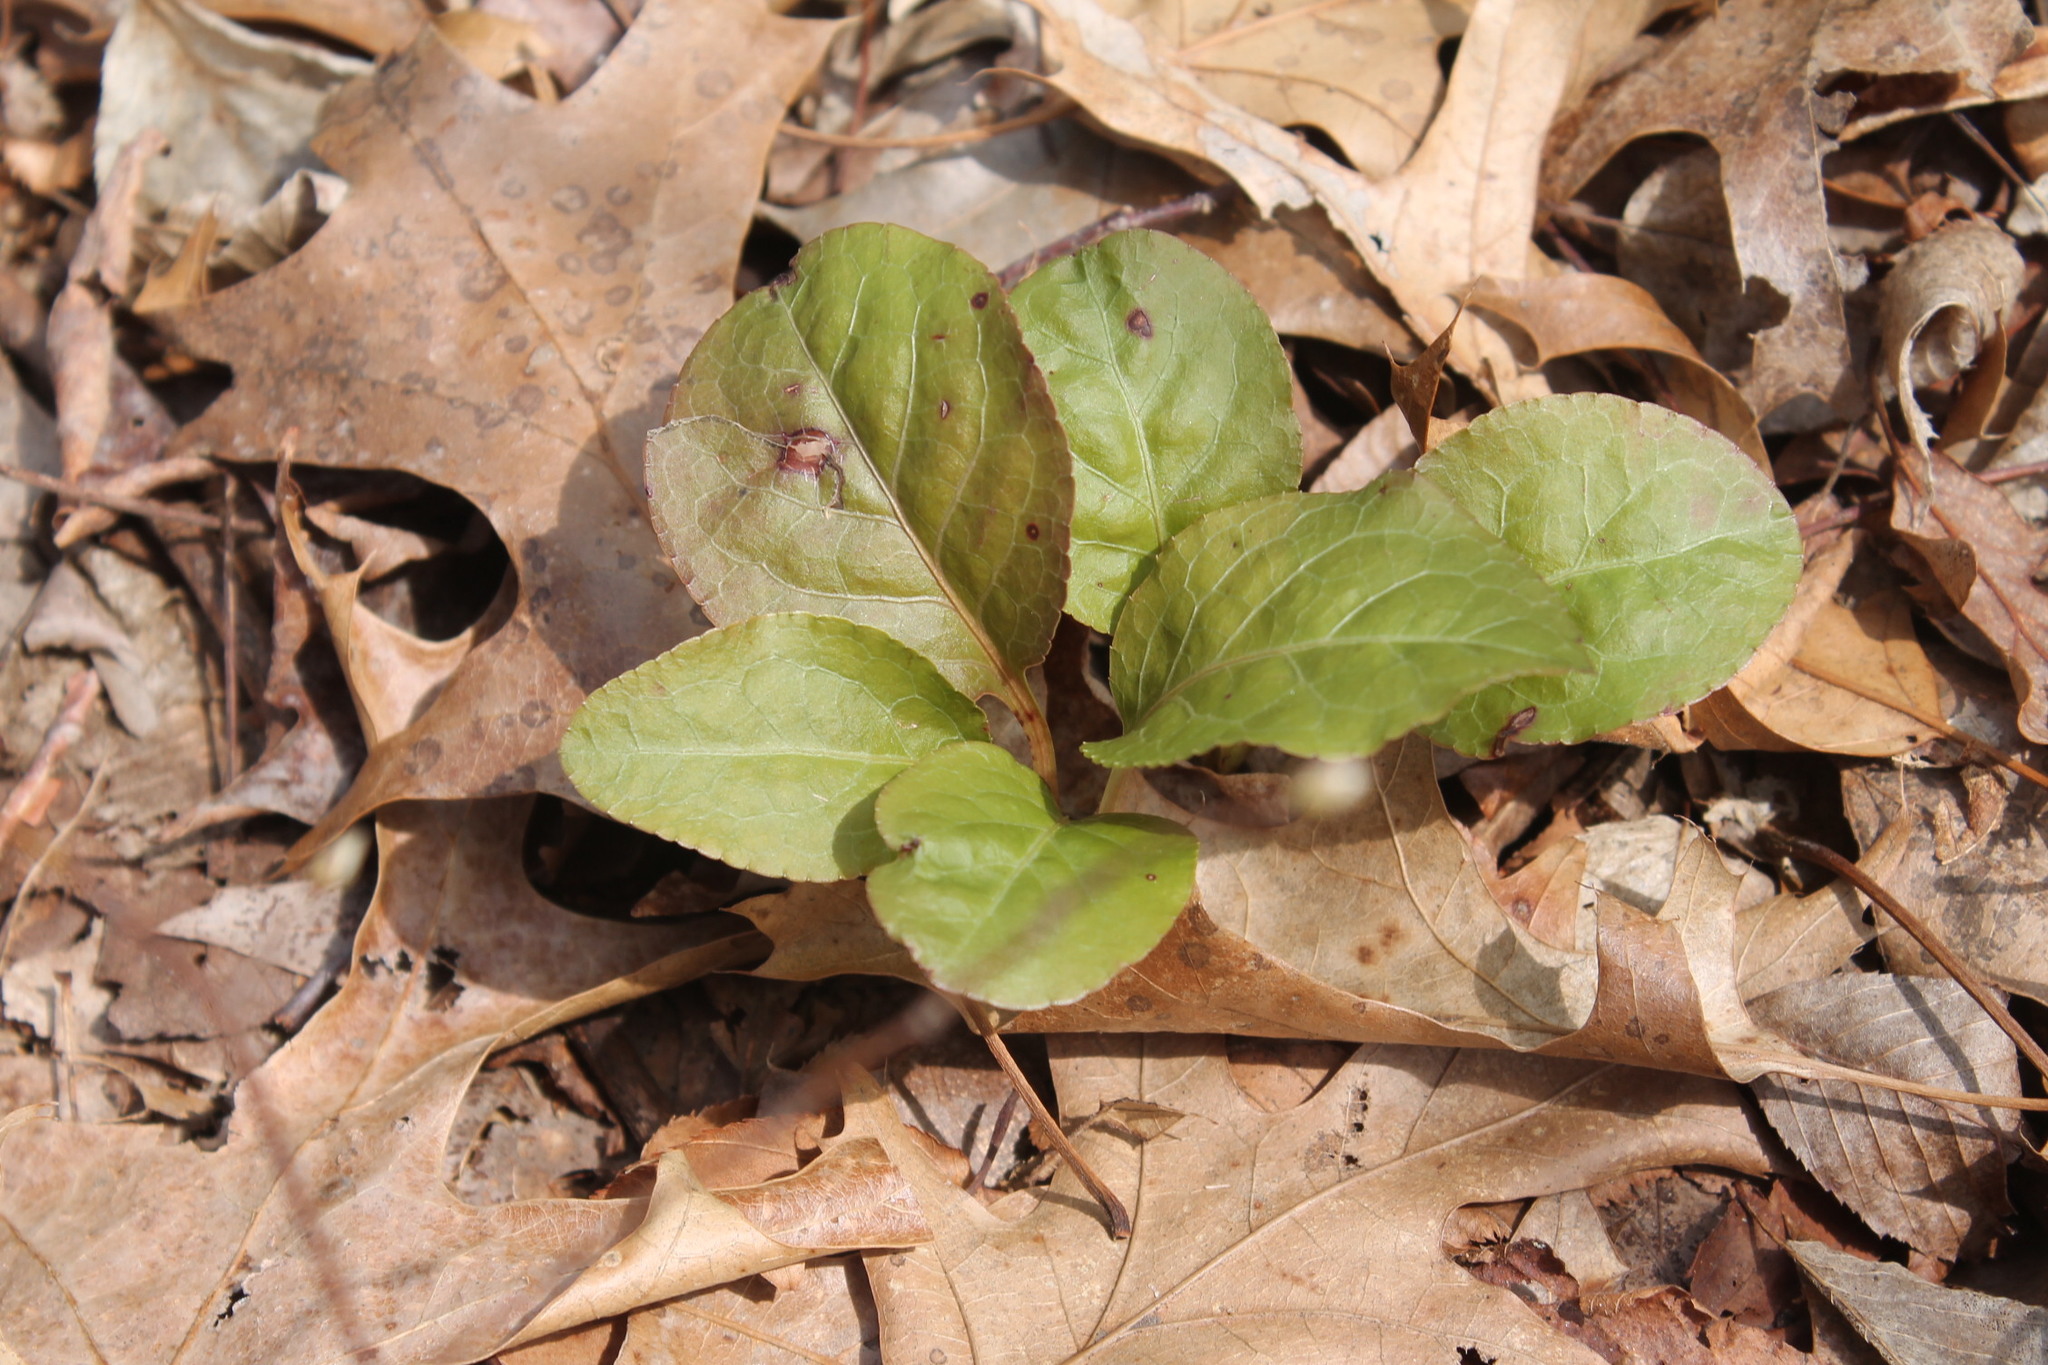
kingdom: Plantae
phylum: Tracheophyta
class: Magnoliopsida
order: Ericales
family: Ericaceae
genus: Pyrola
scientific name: Pyrola elliptica
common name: Shinleaf
